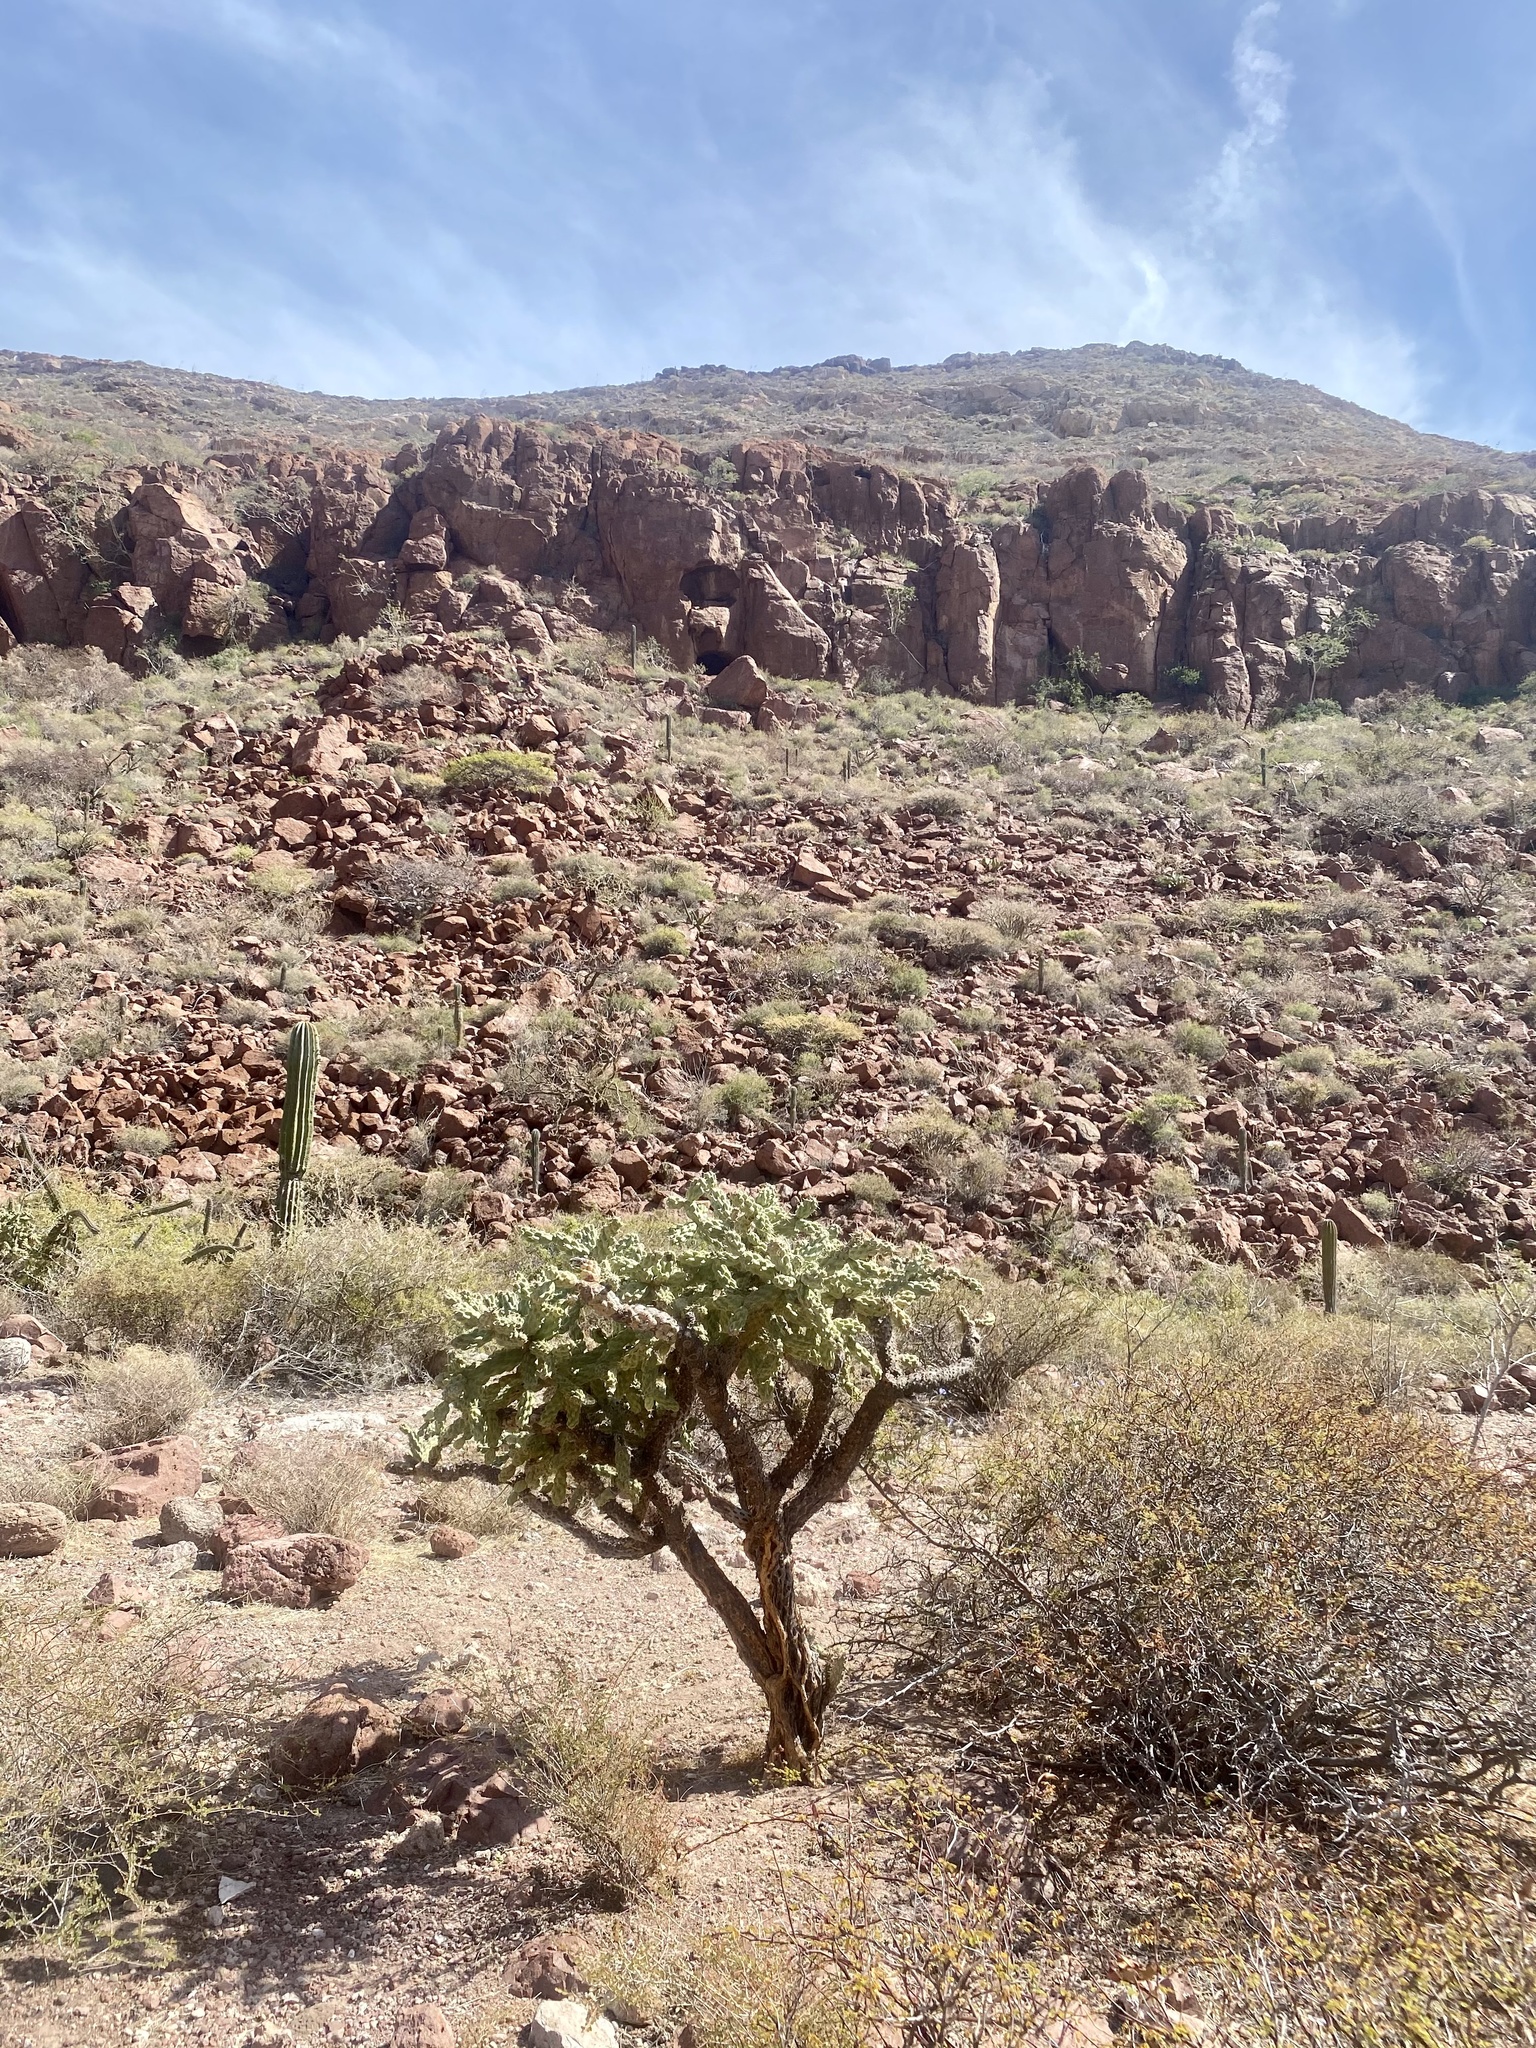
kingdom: Plantae
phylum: Tracheophyta
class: Magnoliopsida
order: Caryophyllales
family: Cactaceae
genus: Cylindropuntia
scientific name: Cylindropuntia cholla
